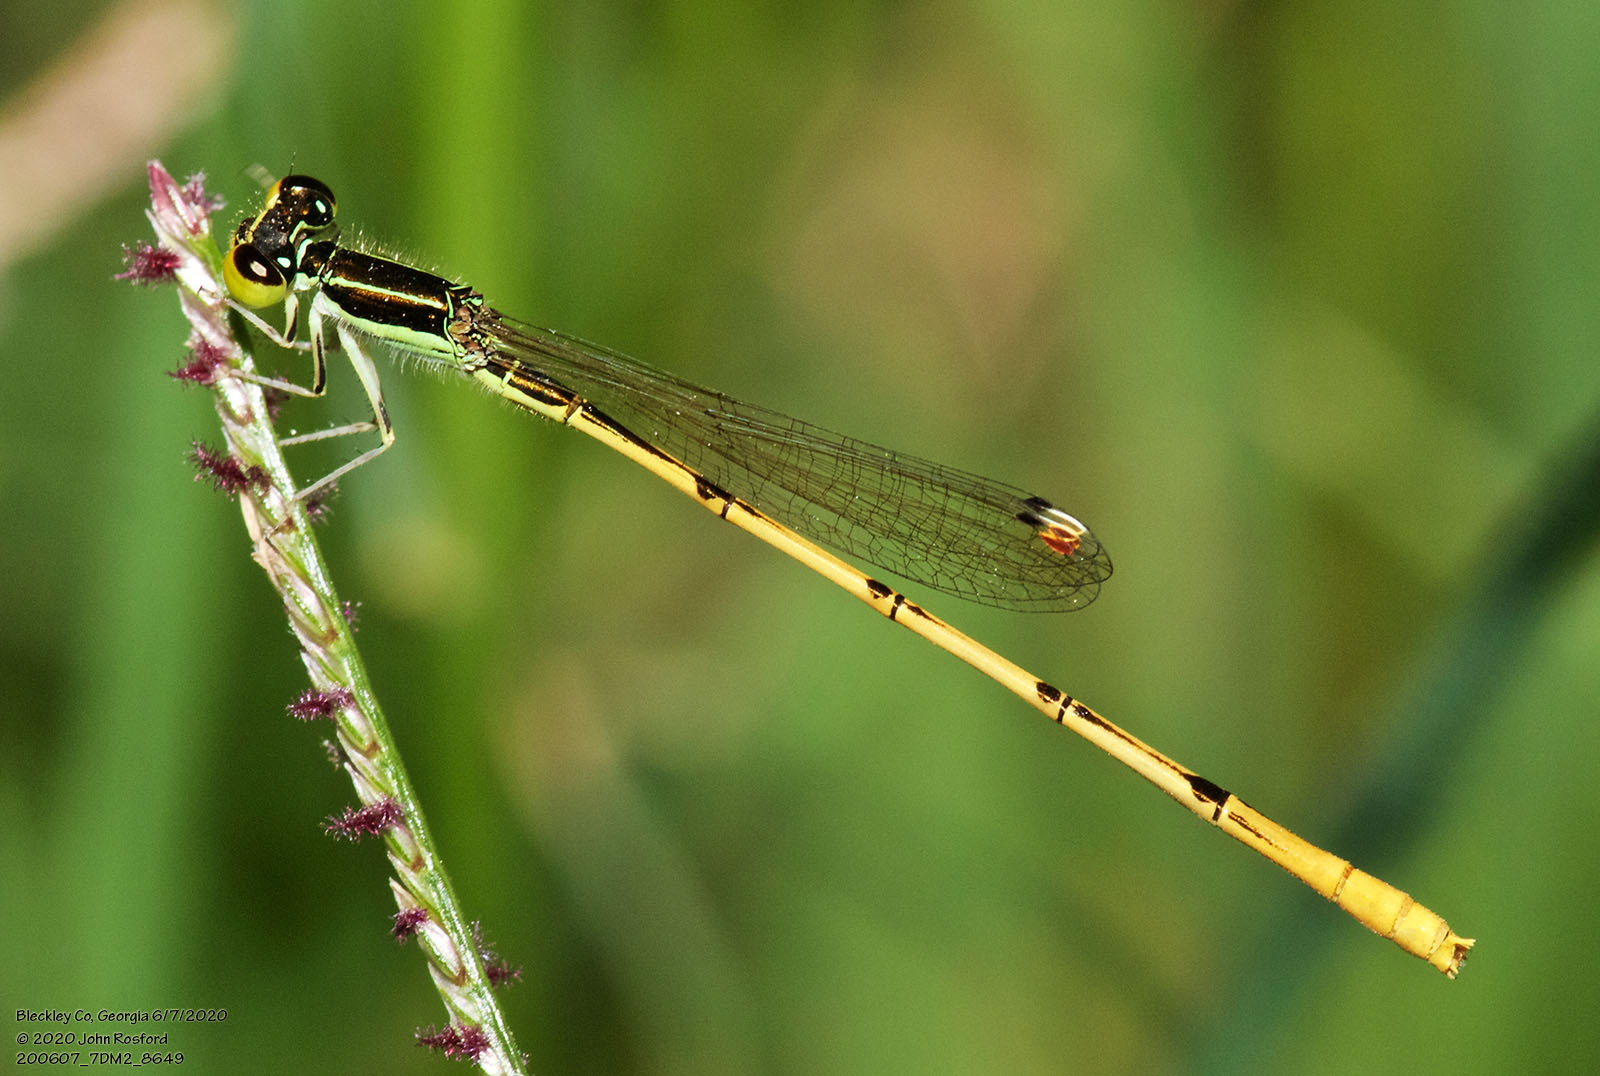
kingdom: Animalia
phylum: Arthropoda
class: Insecta
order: Odonata
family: Coenagrionidae
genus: Ischnura
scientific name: Ischnura hastata
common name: Citrine forktail
